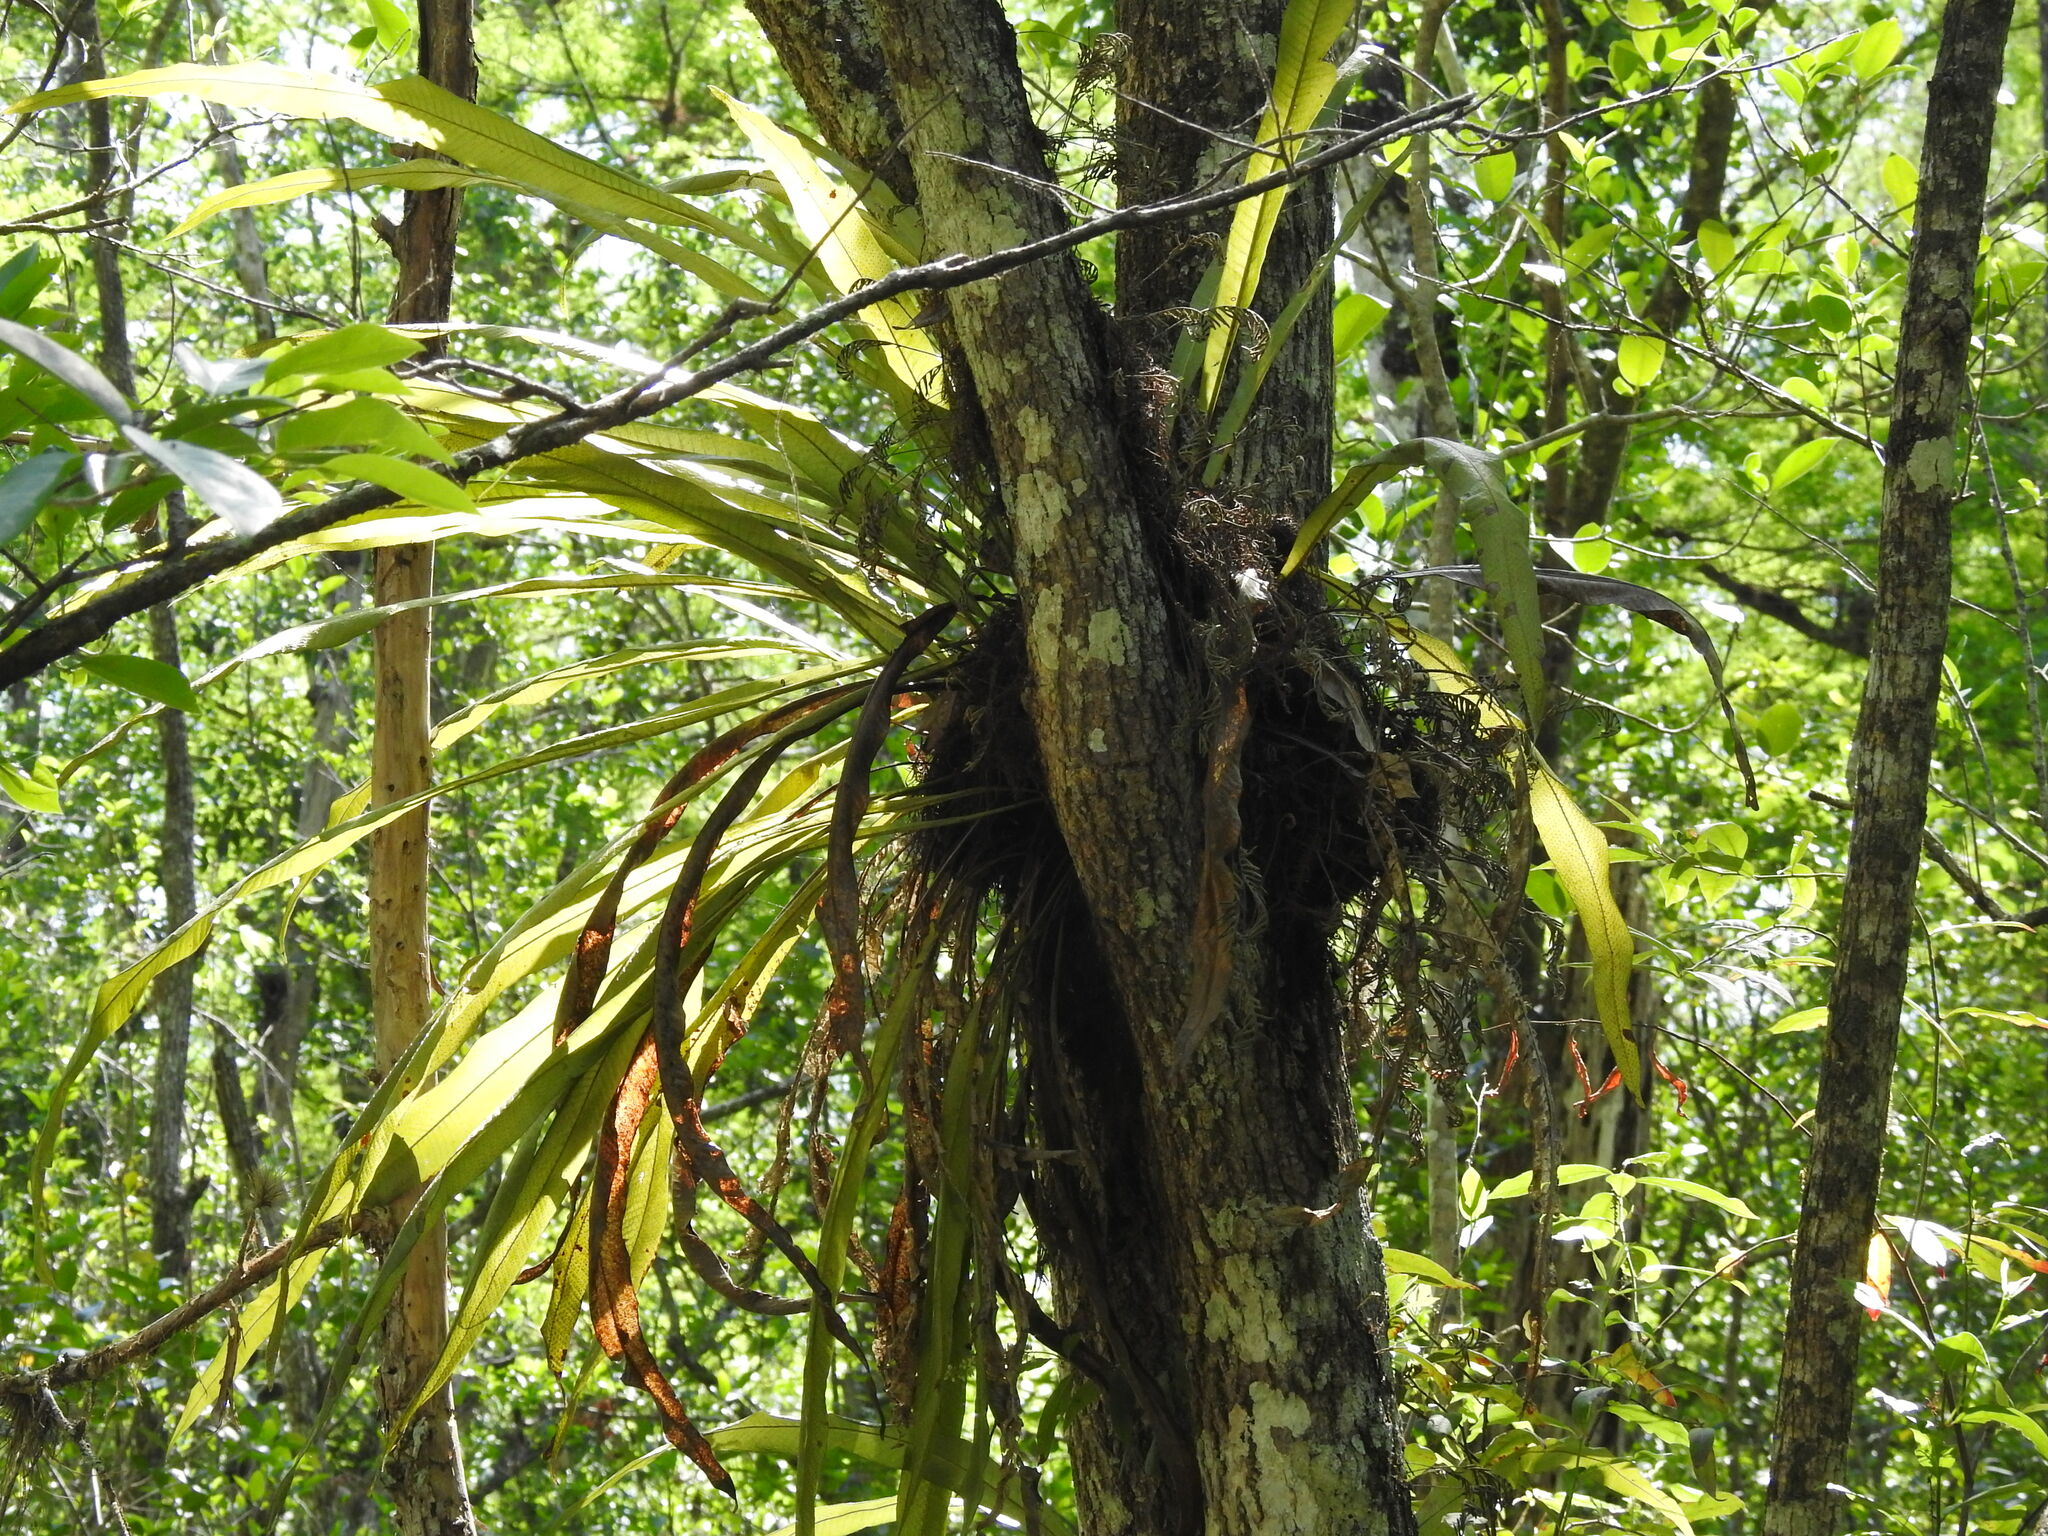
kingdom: Plantae
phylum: Tracheophyta
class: Polypodiopsida
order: Polypodiales
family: Polypodiaceae
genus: Campyloneurum
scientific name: Campyloneurum phyllitidis
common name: Cow-tongue fern
